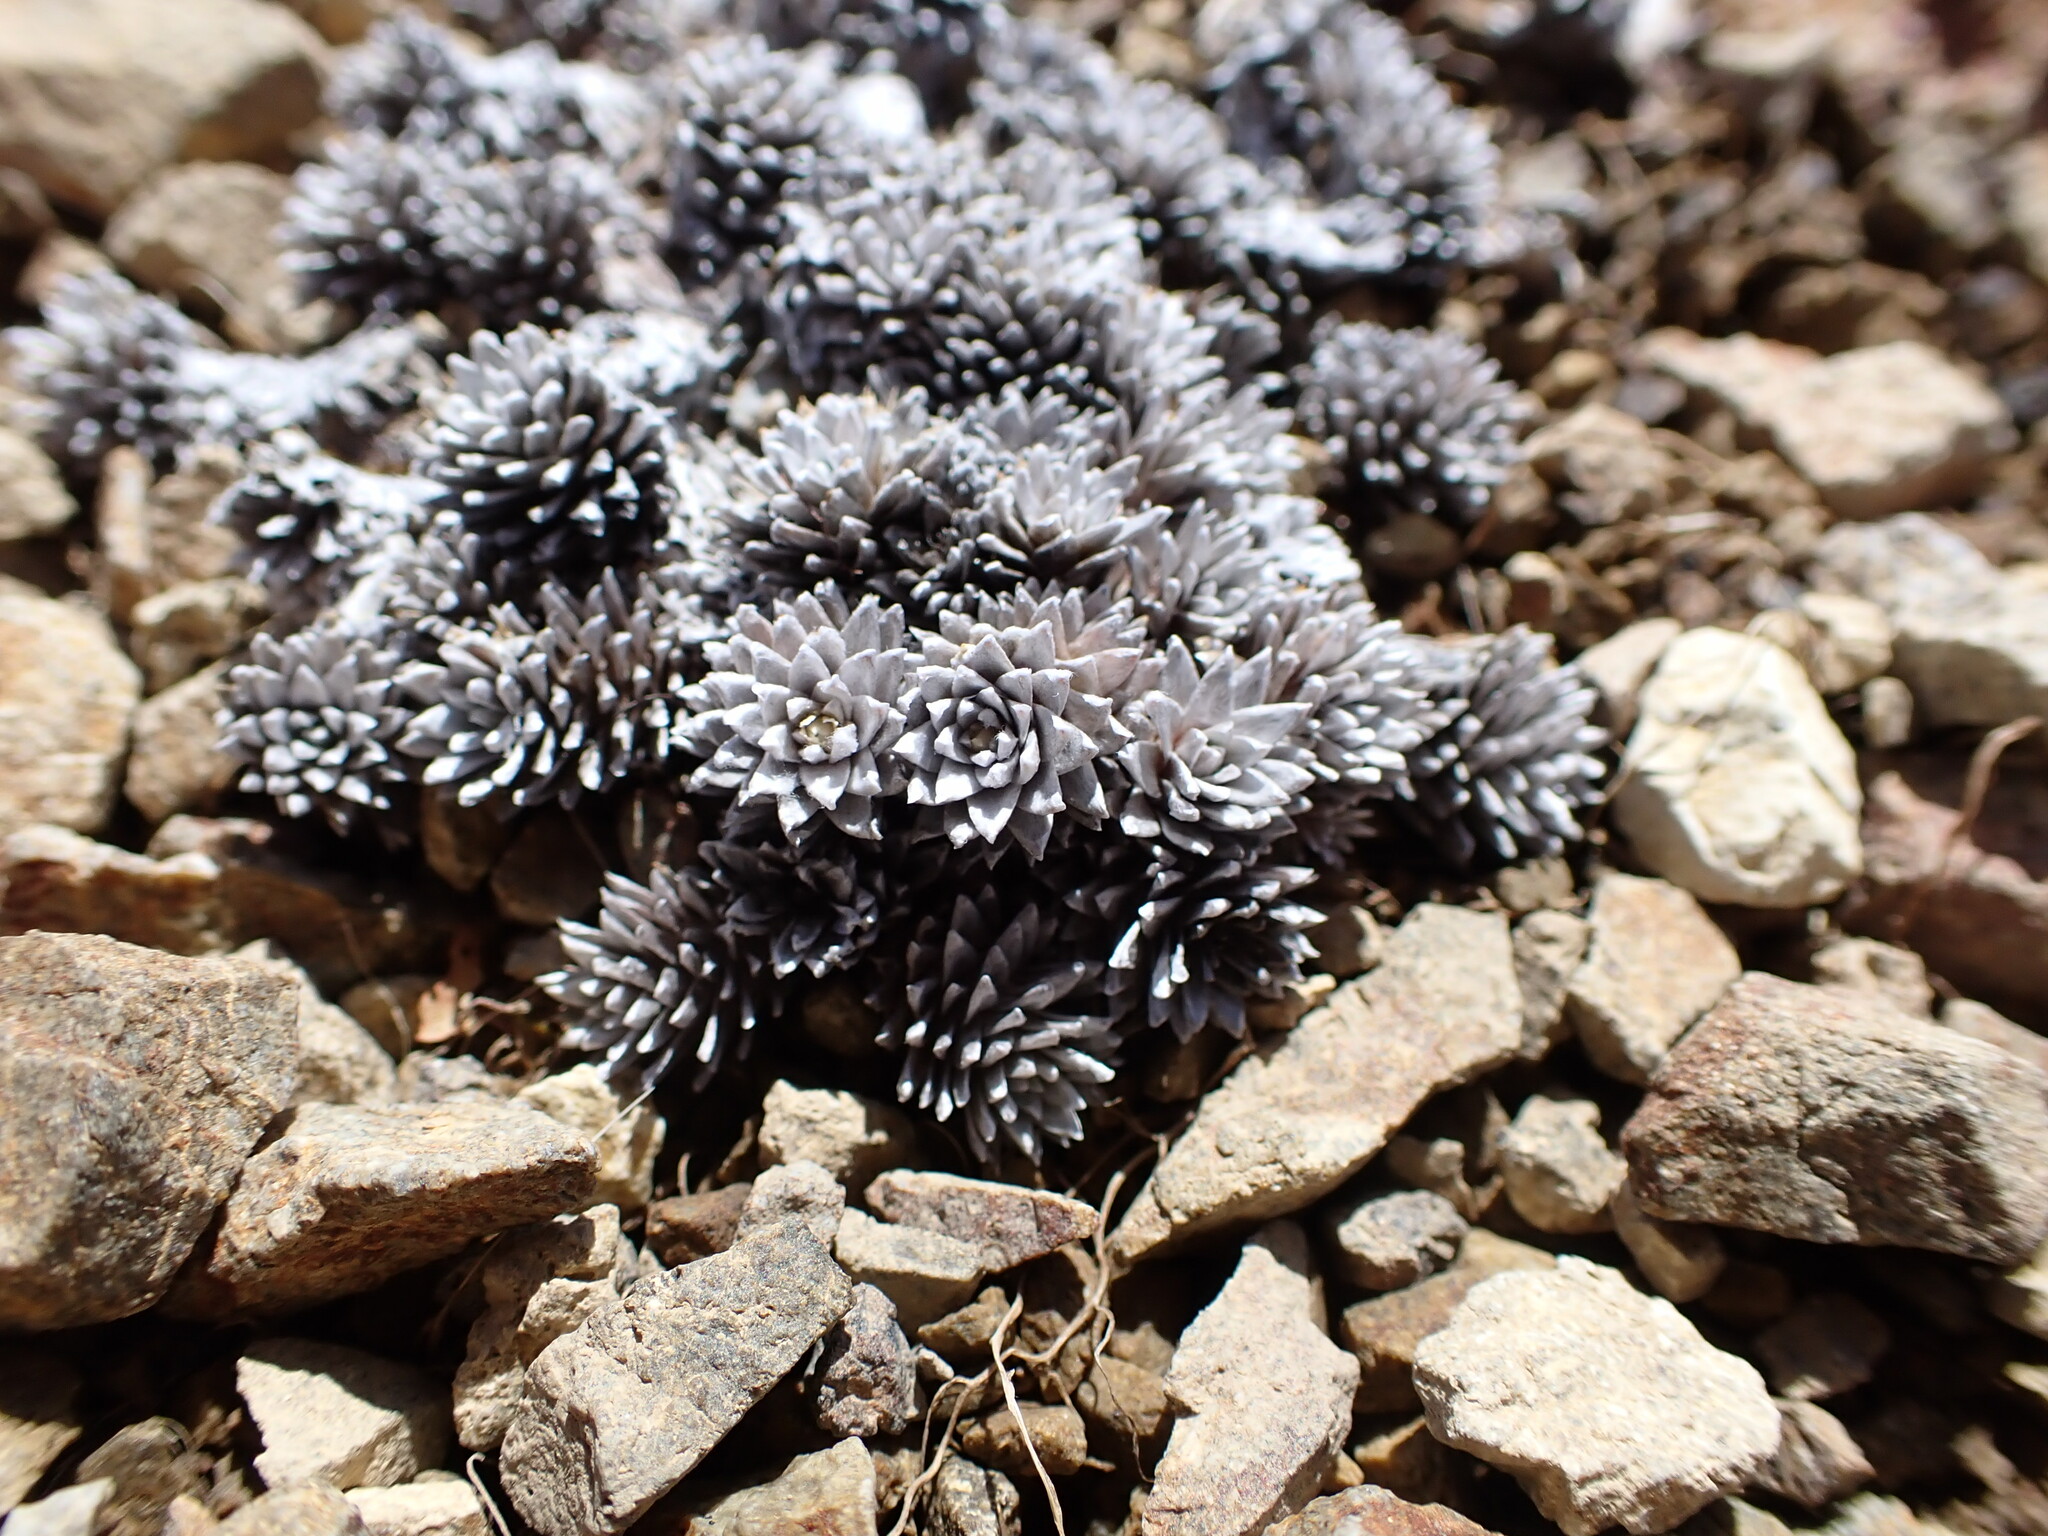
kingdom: Plantae
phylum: Tracheophyta
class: Magnoliopsida
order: Asterales
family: Asteraceae
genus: Raoulia
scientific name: Raoulia grandiflora
